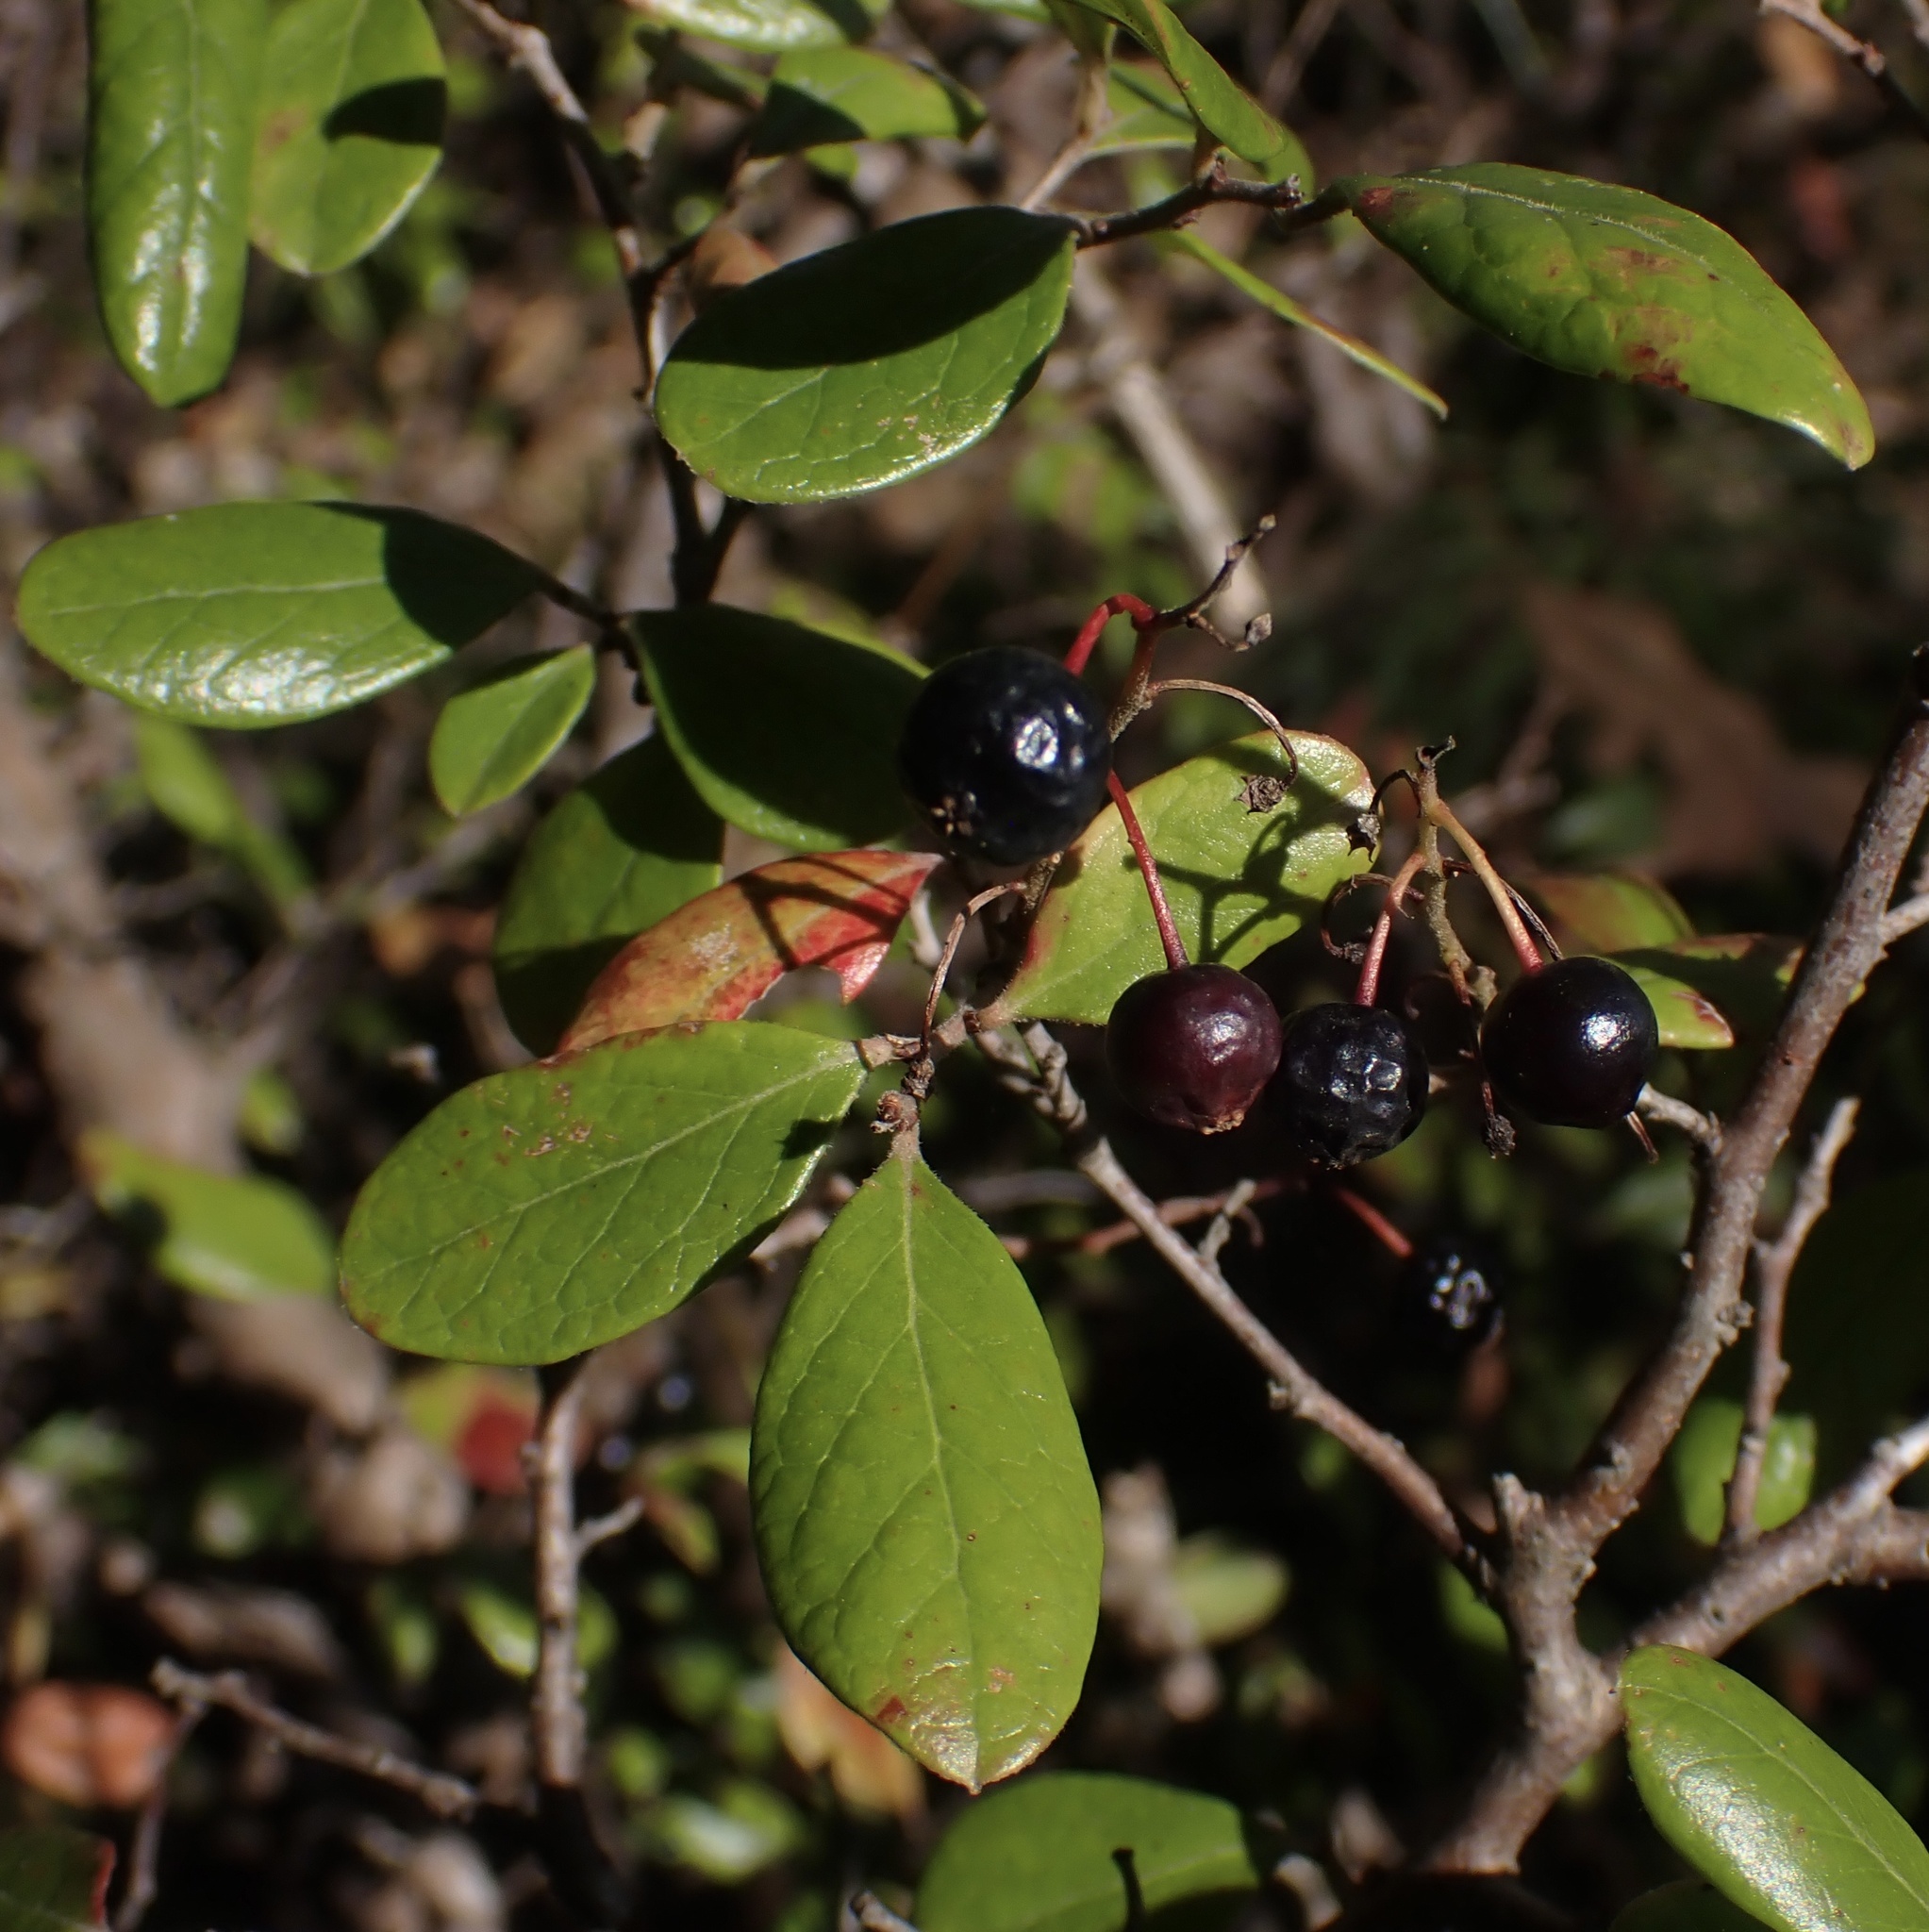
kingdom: Plantae
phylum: Tracheophyta
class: Magnoliopsida
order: Ericales
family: Ericaceae
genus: Vaccinium
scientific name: Vaccinium arboreum
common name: Farkleberry
